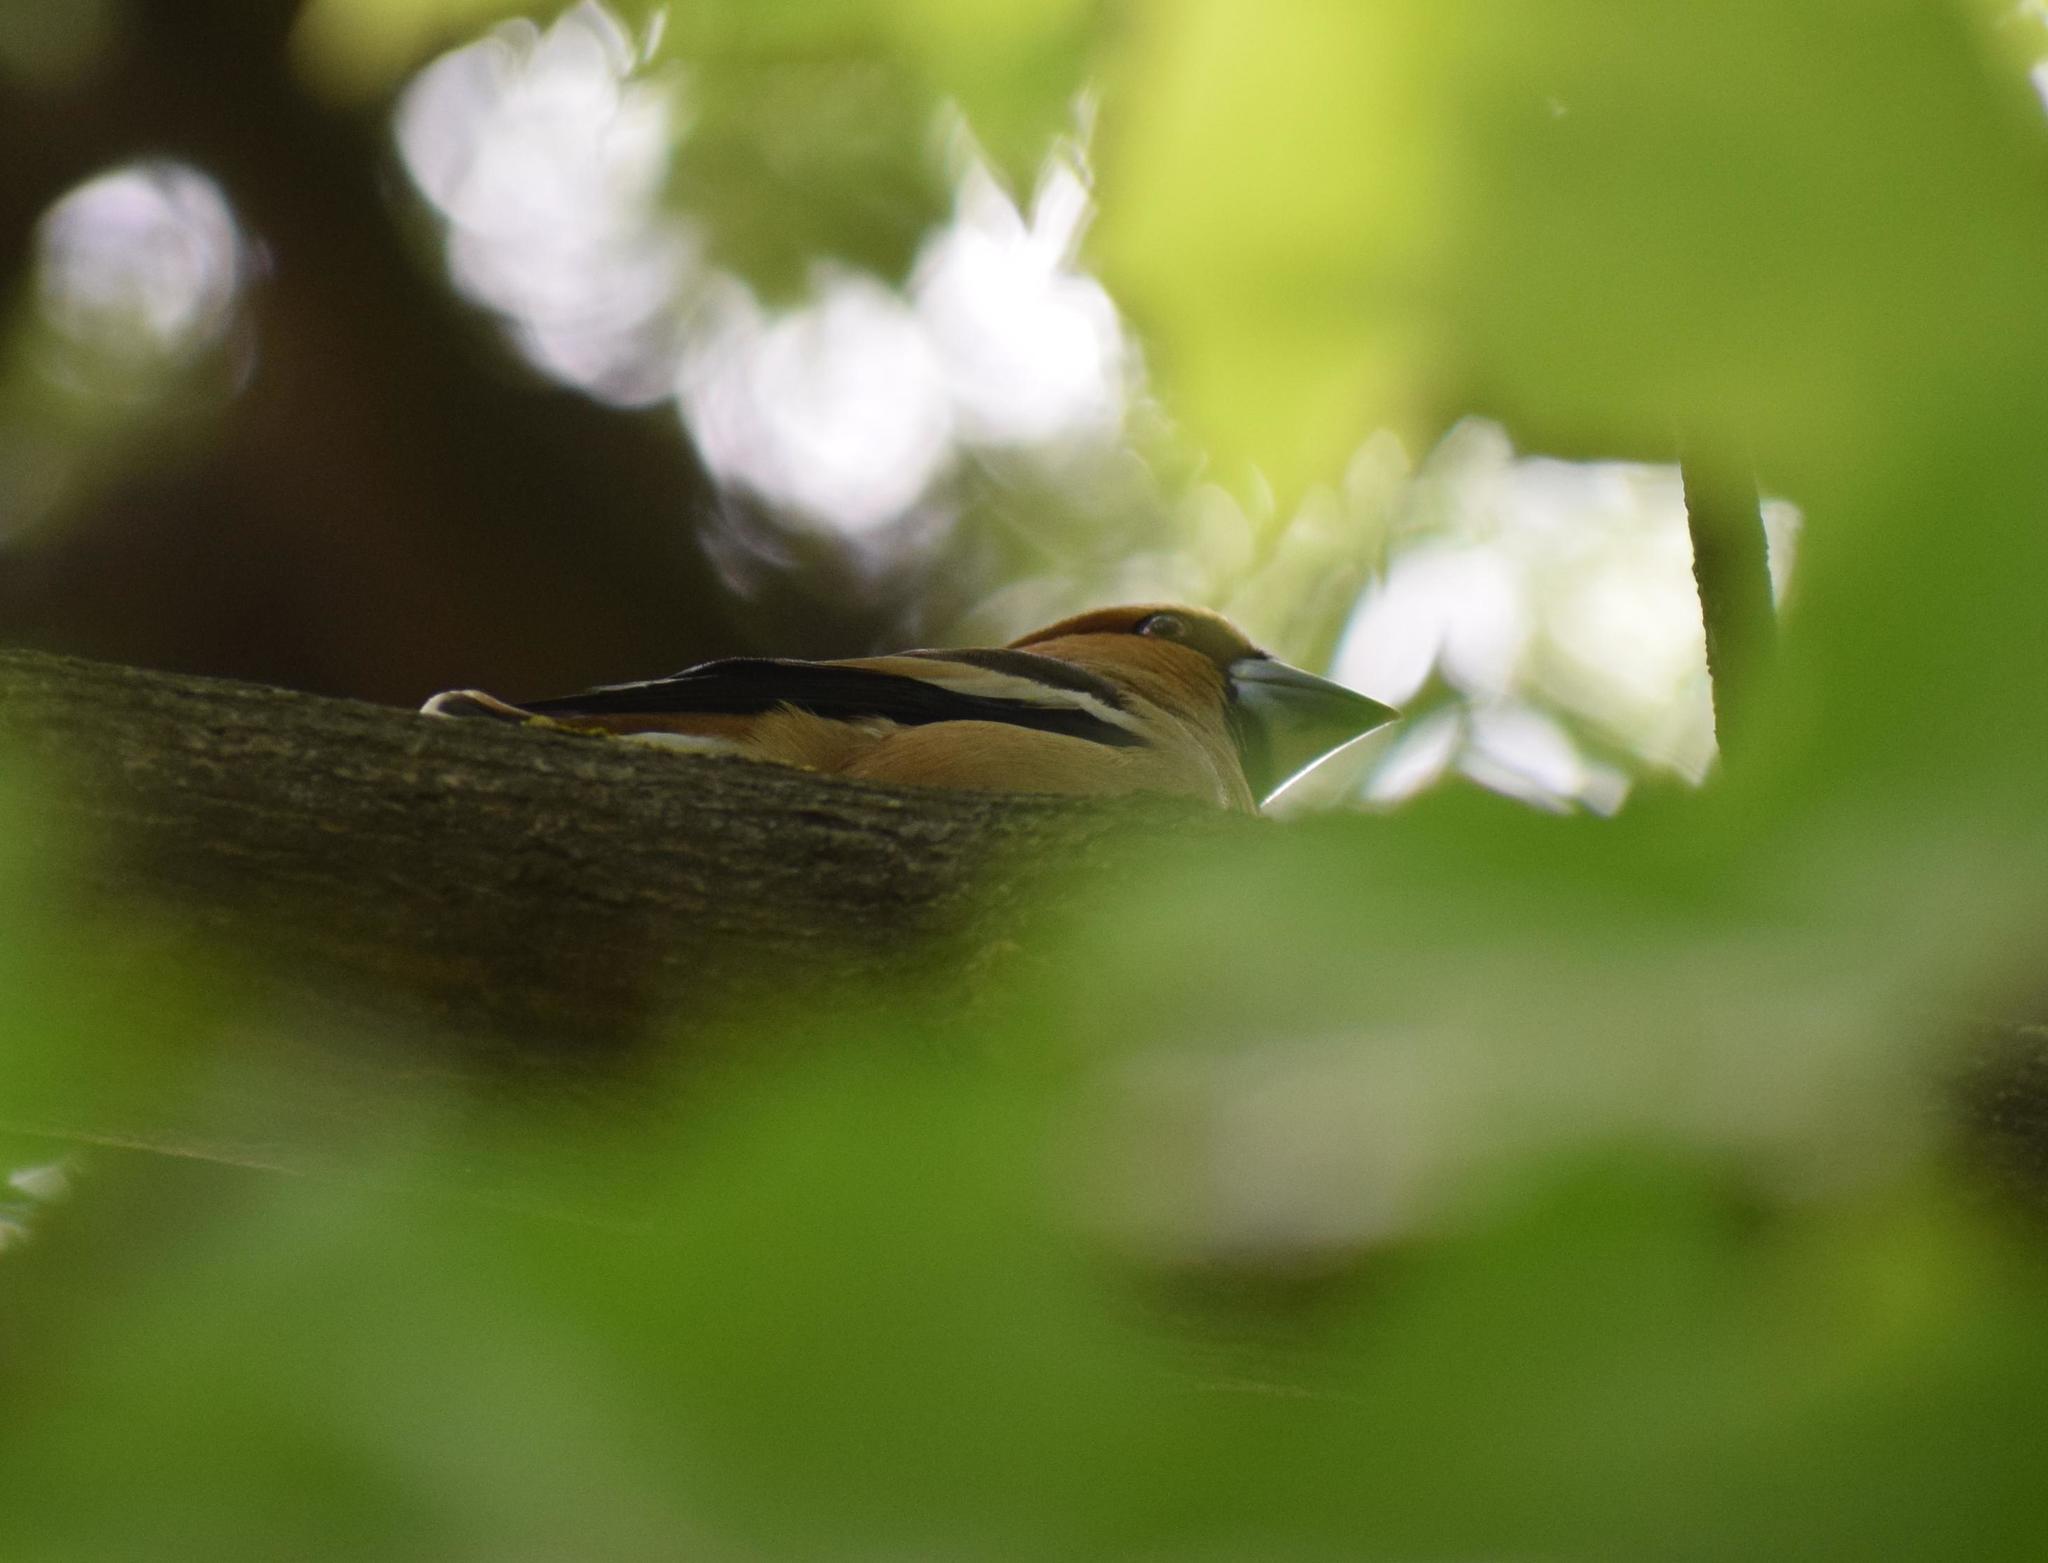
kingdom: Animalia
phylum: Chordata
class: Aves
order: Passeriformes
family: Fringillidae
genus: Coccothraustes
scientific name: Coccothraustes coccothraustes
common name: Hawfinch
